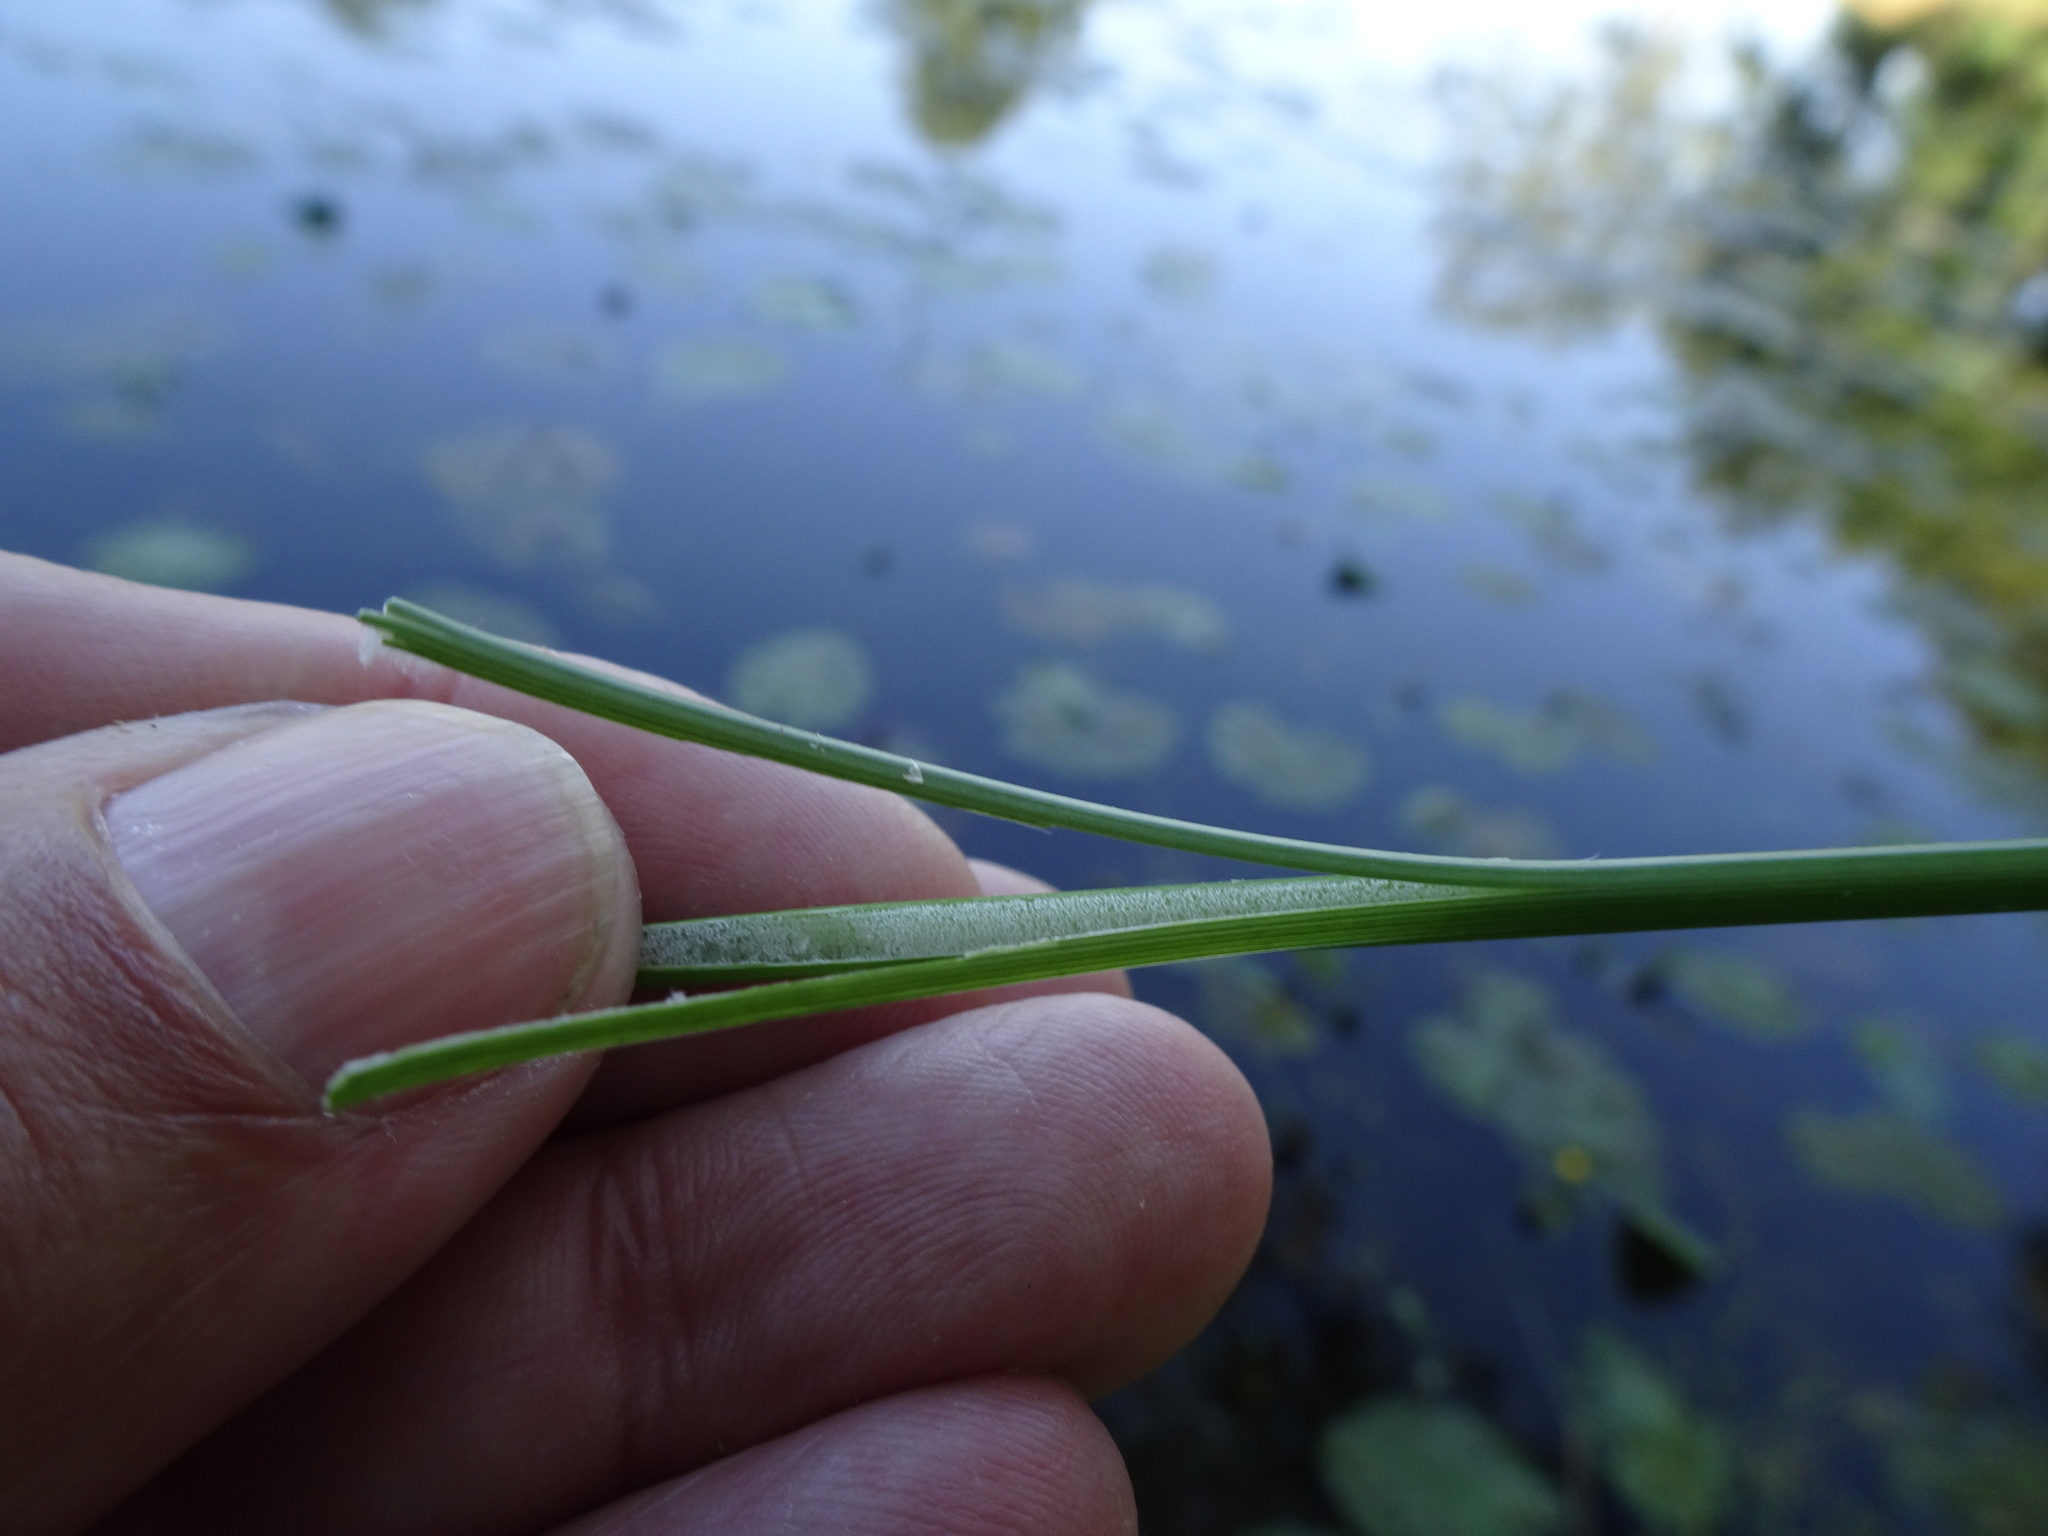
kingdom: Plantae
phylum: Tracheophyta
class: Liliopsida
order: Poales
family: Juncaceae
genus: Juncus
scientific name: Juncus effusus
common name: Soft rush
